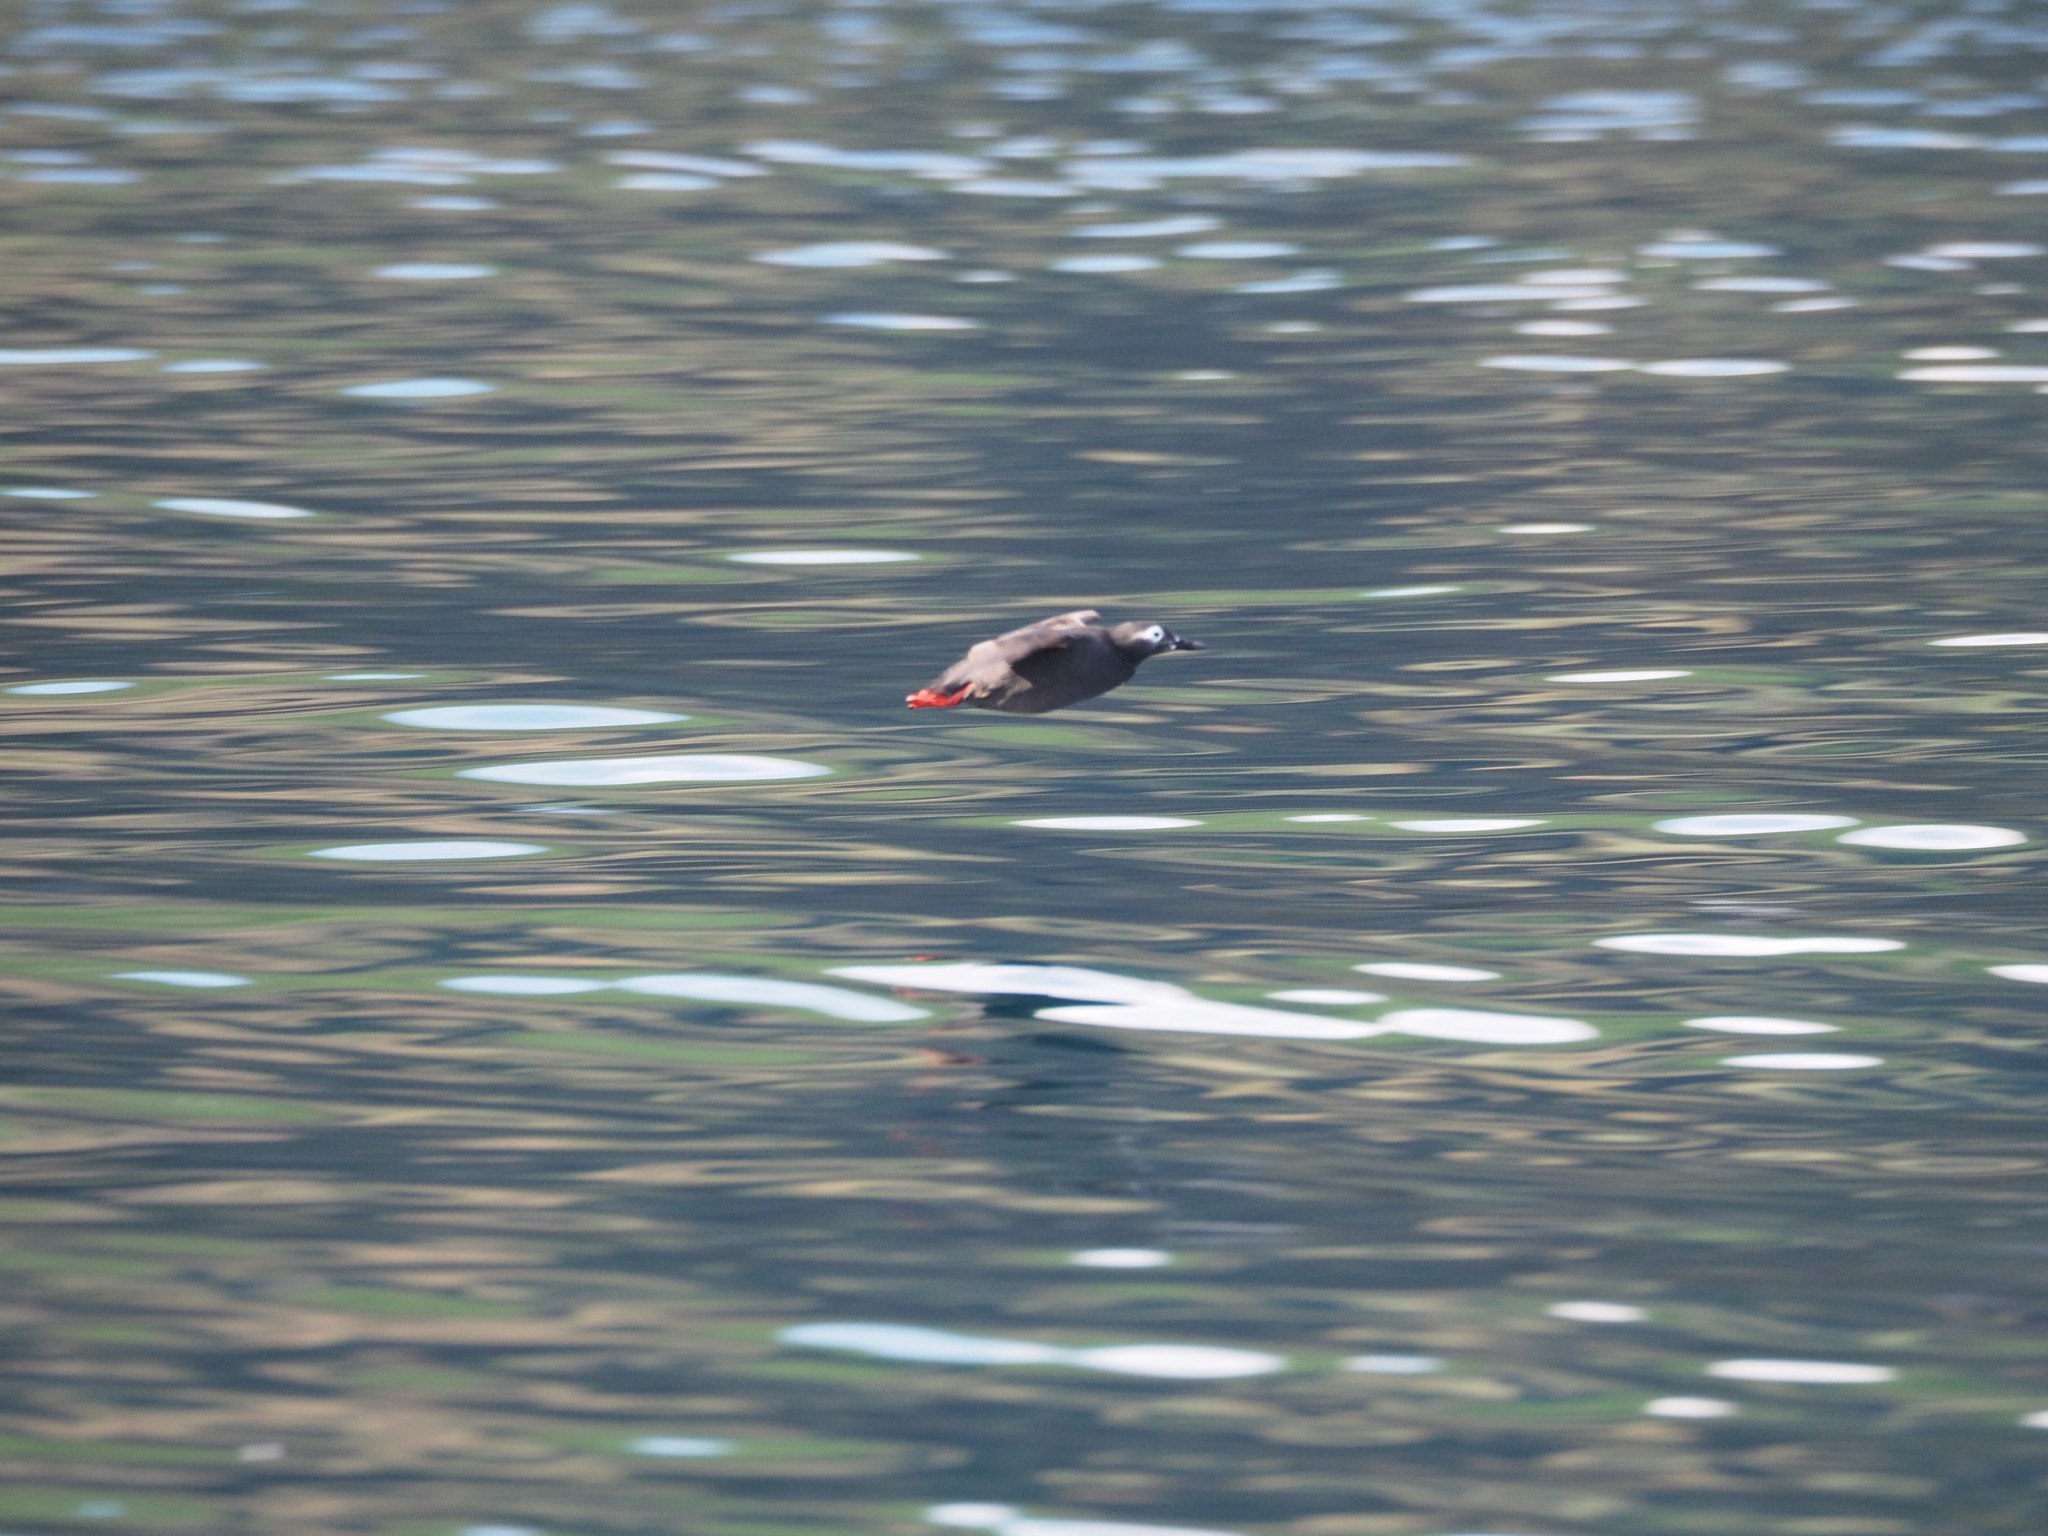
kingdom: Animalia
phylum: Chordata
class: Aves
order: Charadriiformes
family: Alcidae
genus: Cepphus
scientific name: Cepphus carbo
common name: Spectacled guillemot
